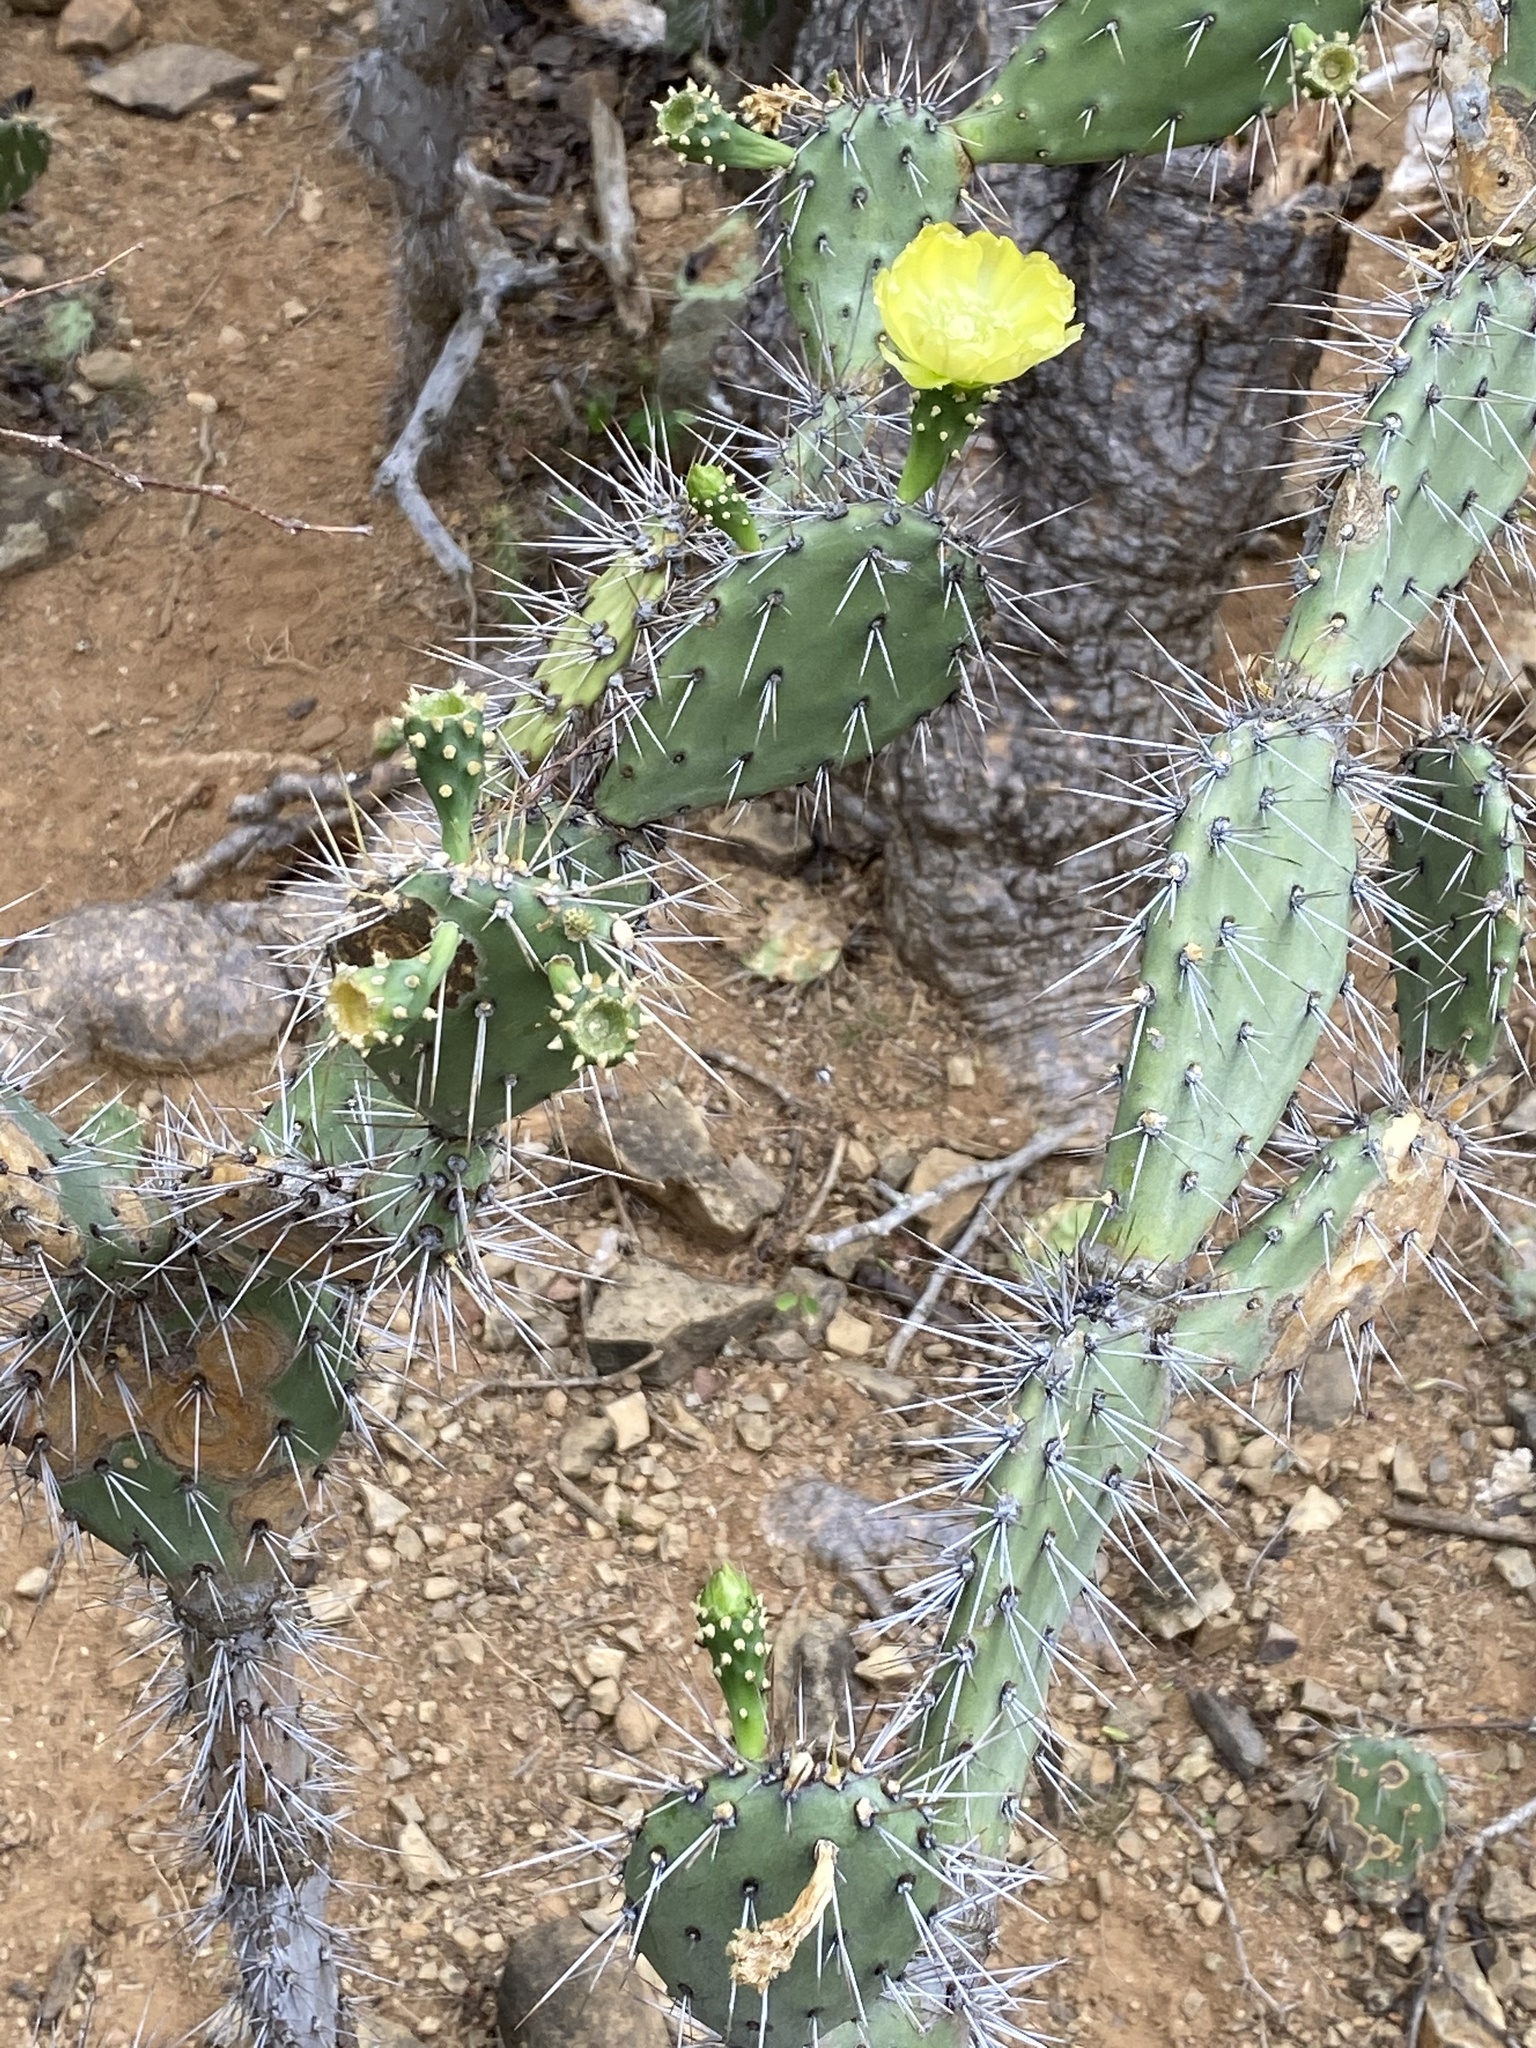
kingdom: Plantae
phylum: Tracheophyta
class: Magnoliopsida
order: Caryophyllales
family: Cactaceae
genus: Opuntia
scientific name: Opuntia caracassana
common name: Common prickly pear
